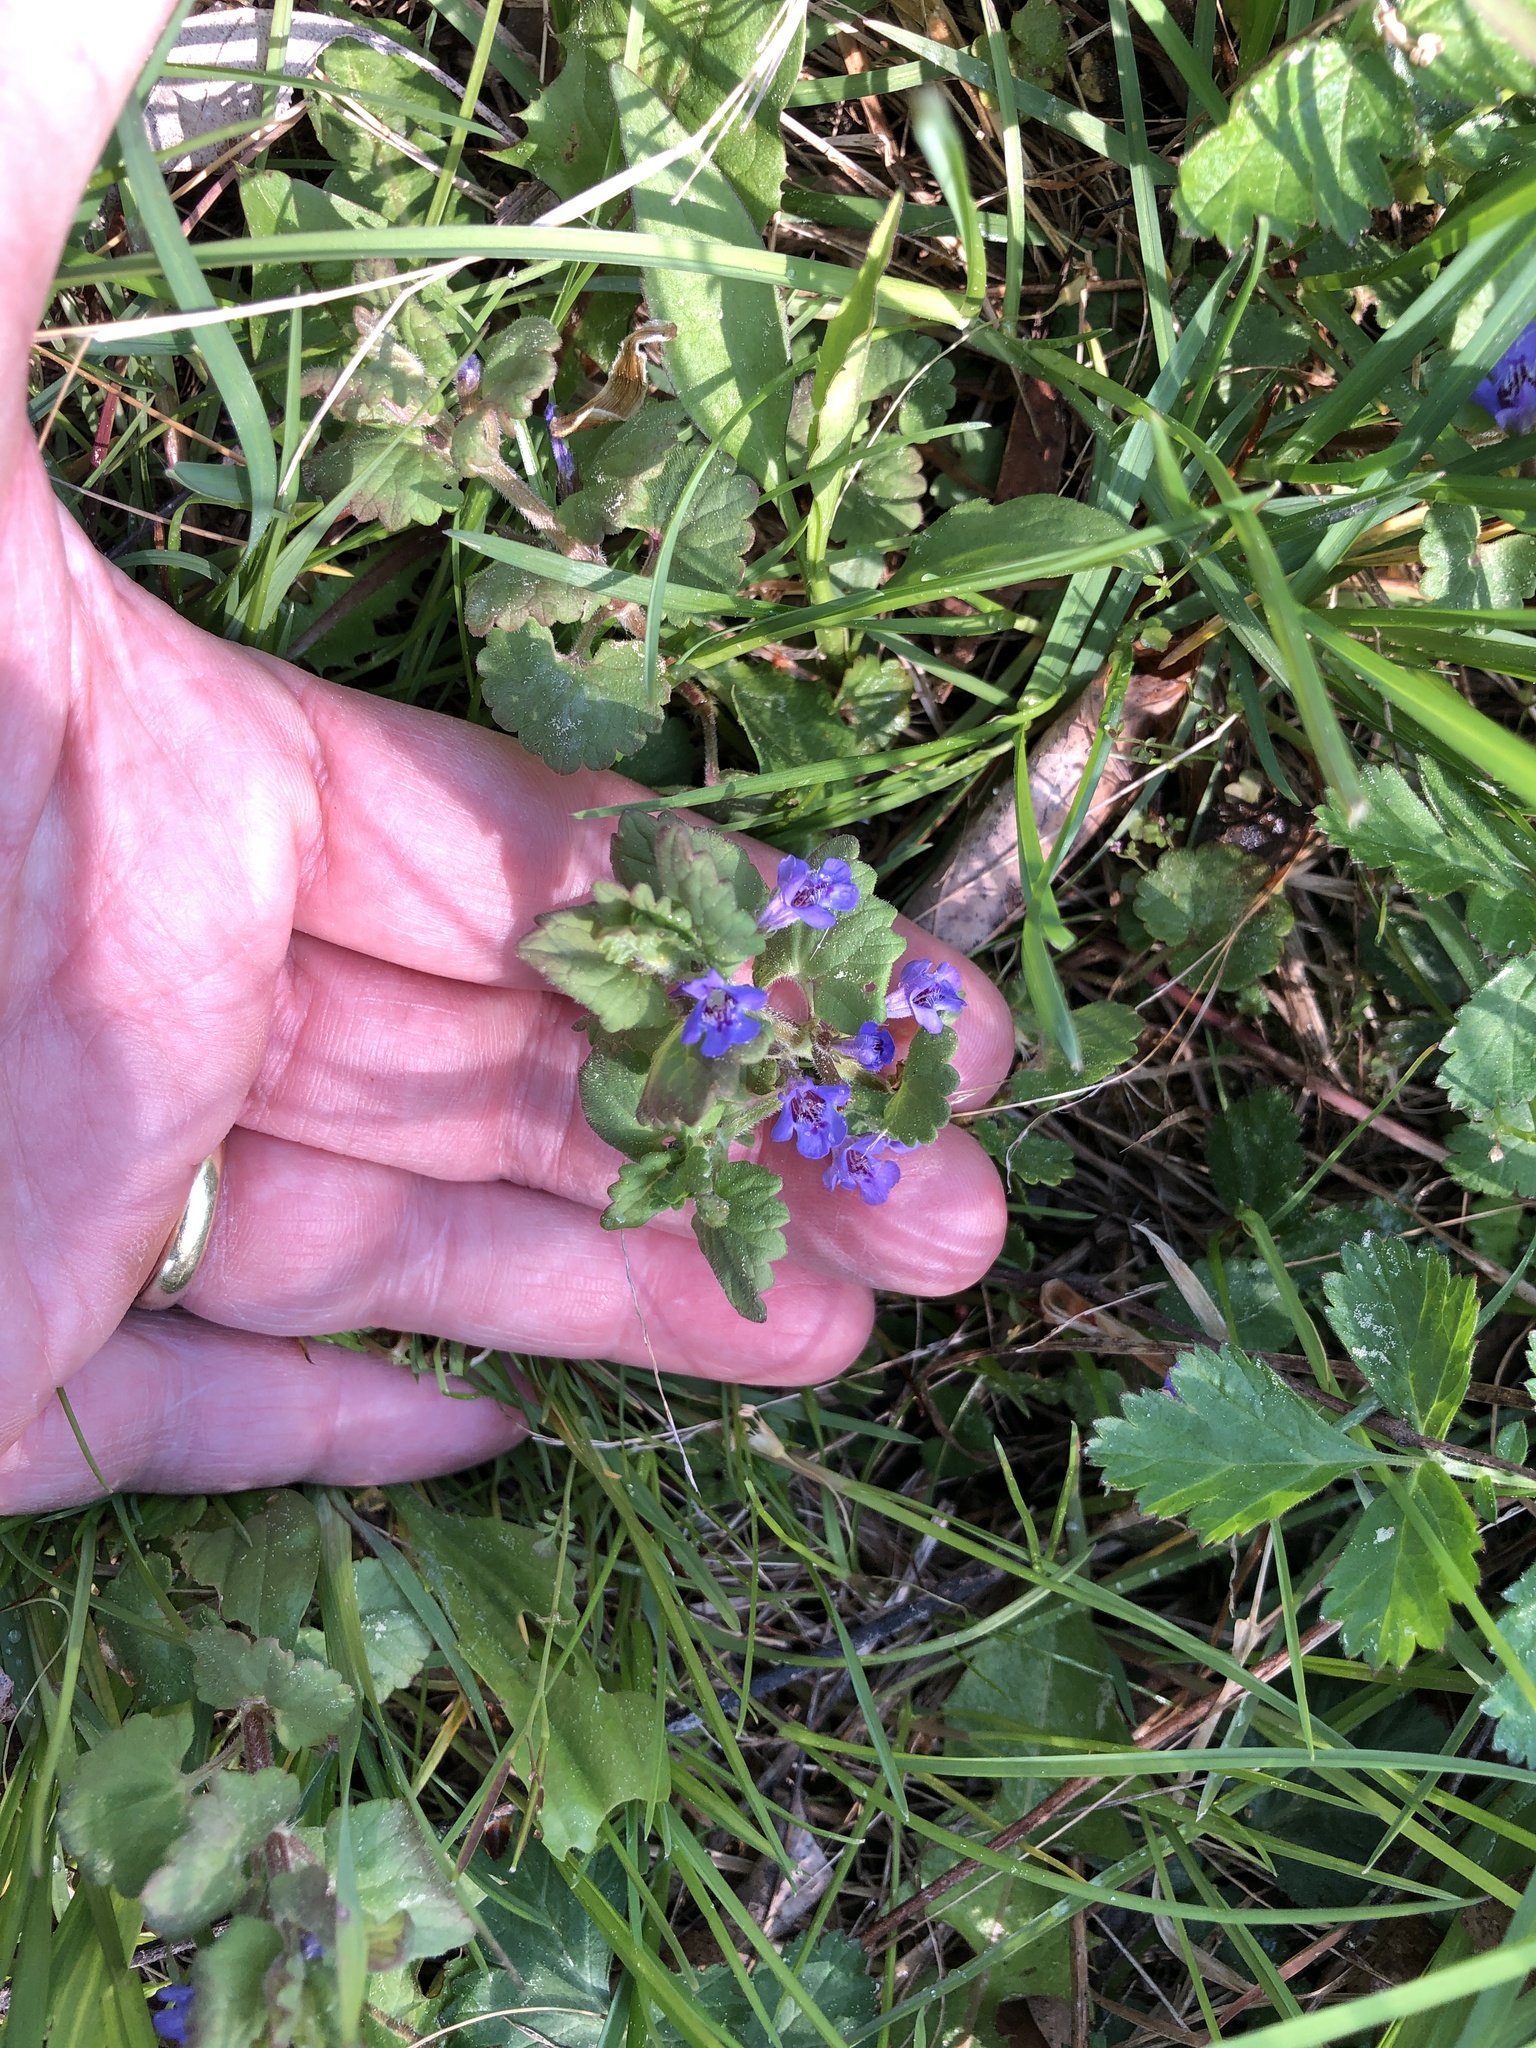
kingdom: Plantae
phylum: Tracheophyta
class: Magnoliopsida
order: Lamiales
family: Lamiaceae
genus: Glechoma
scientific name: Glechoma hederacea
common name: Ground ivy
